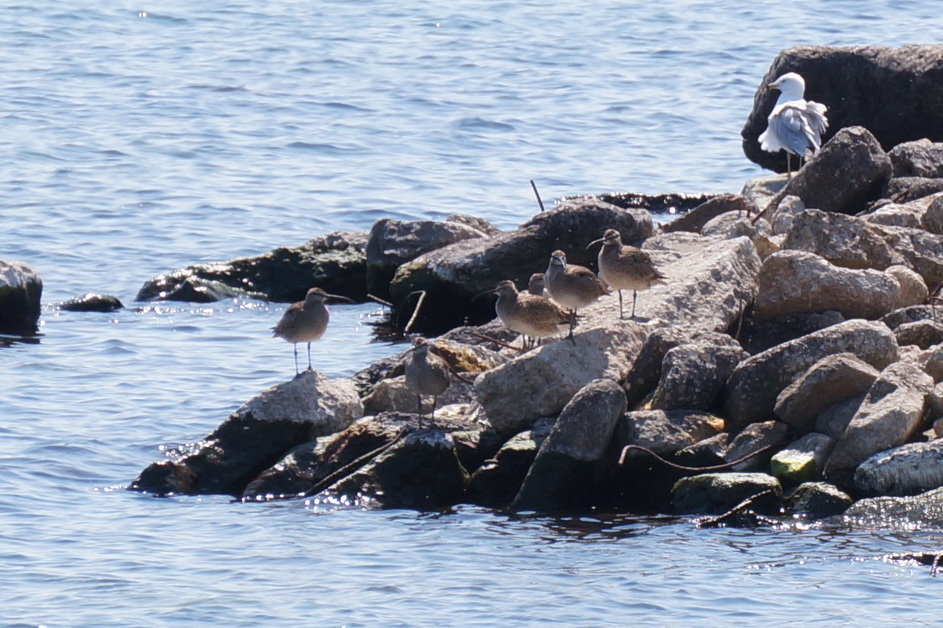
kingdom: Animalia
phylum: Chordata
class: Aves
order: Charadriiformes
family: Scolopacidae
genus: Numenius
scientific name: Numenius phaeopus
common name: Whimbrel
